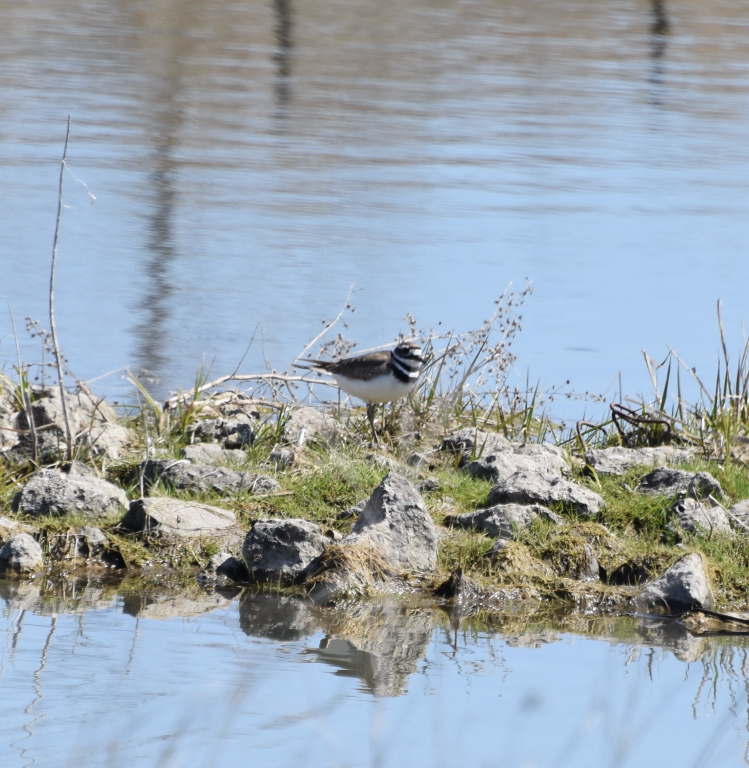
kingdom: Animalia
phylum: Chordata
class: Aves
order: Charadriiformes
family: Charadriidae
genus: Charadrius
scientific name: Charadrius vociferus
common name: Killdeer
